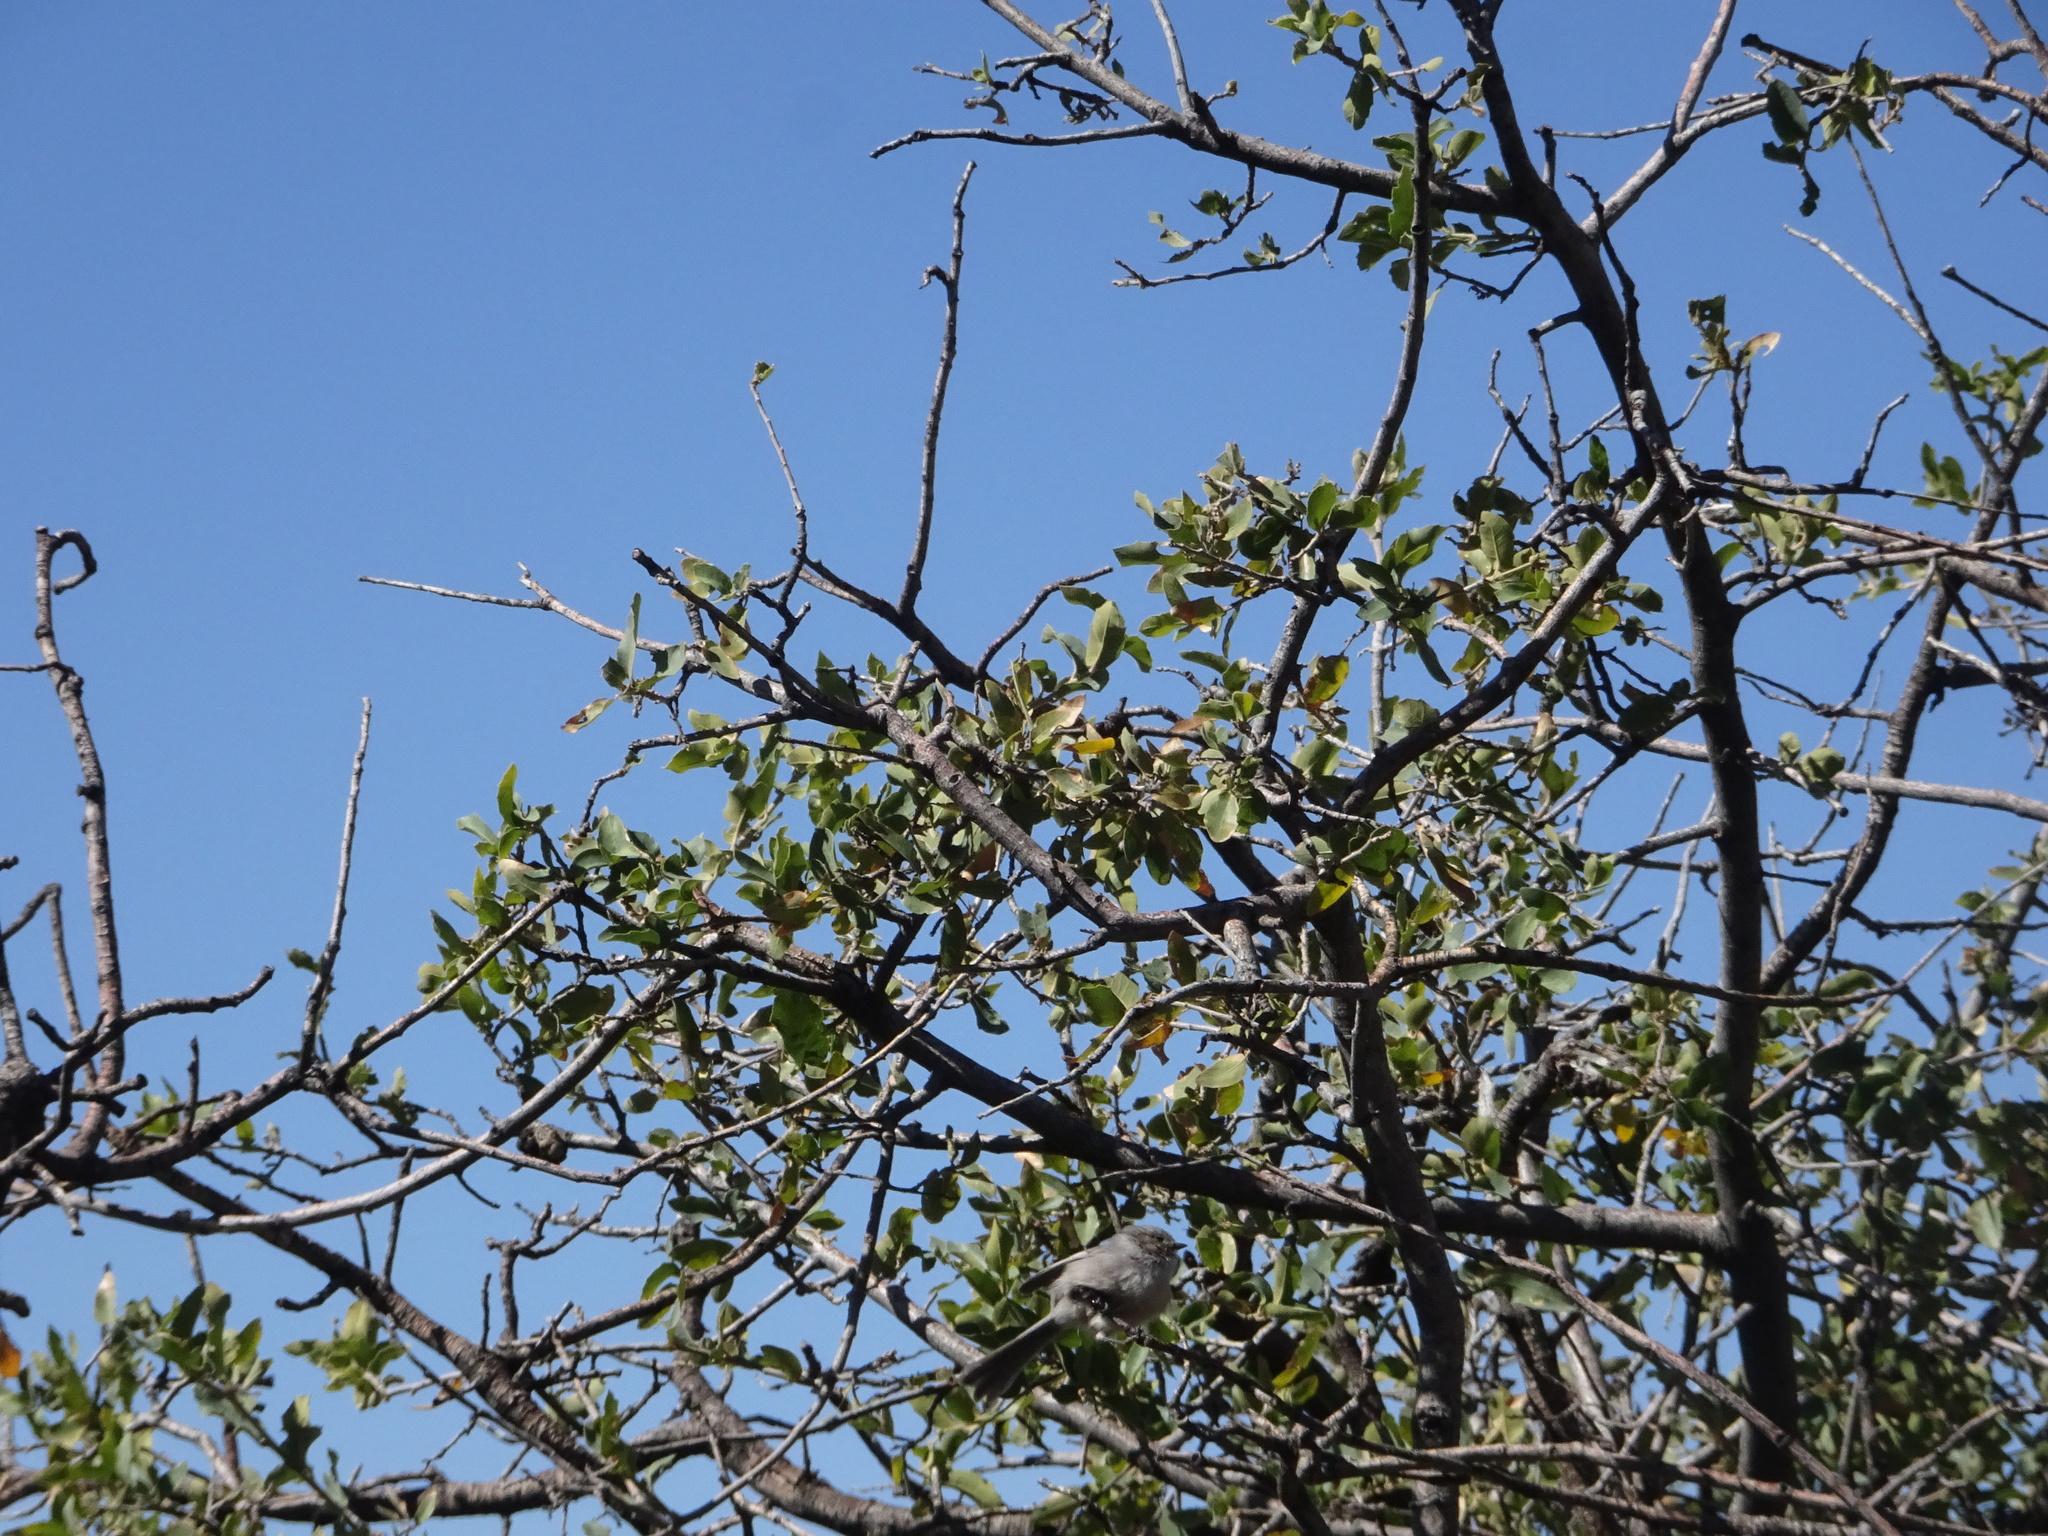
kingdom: Animalia
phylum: Chordata
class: Aves
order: Passeriformes
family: Aegithalidae
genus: Psaltriparus
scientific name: Psaltriparus minimus
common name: American bushtit
